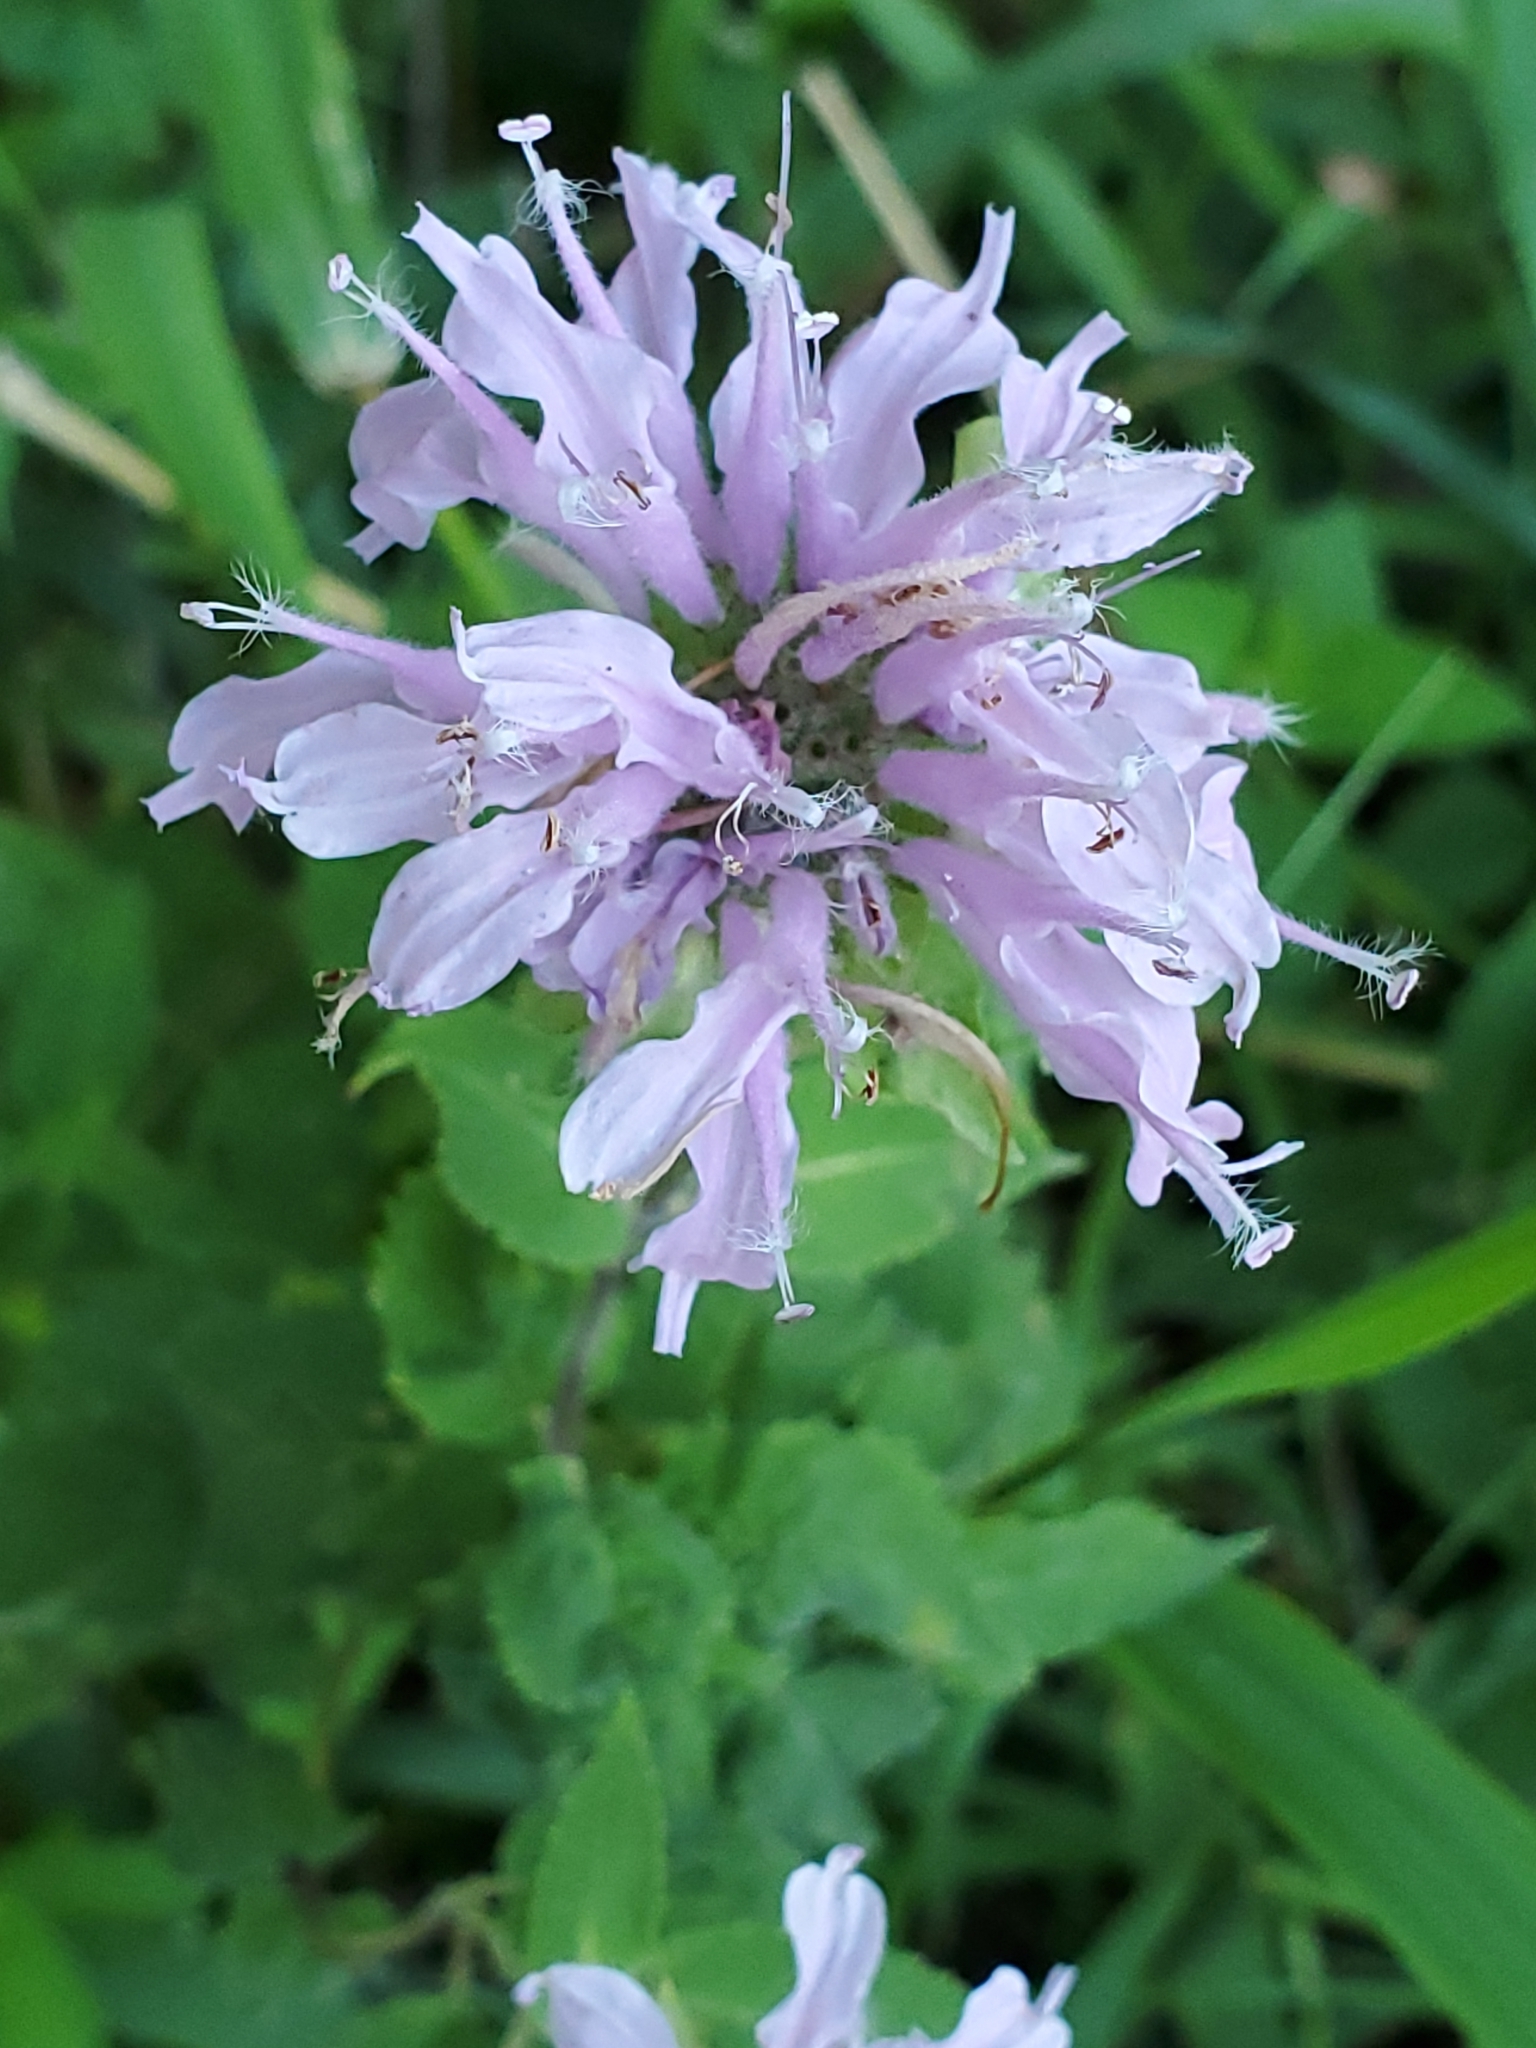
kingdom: Plantae
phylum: Tracheophyta
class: Magnoliopsida
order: Lamiales
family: Lamiaceae
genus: Monarda
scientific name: Monarda fistulosa
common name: Purple beebalm
